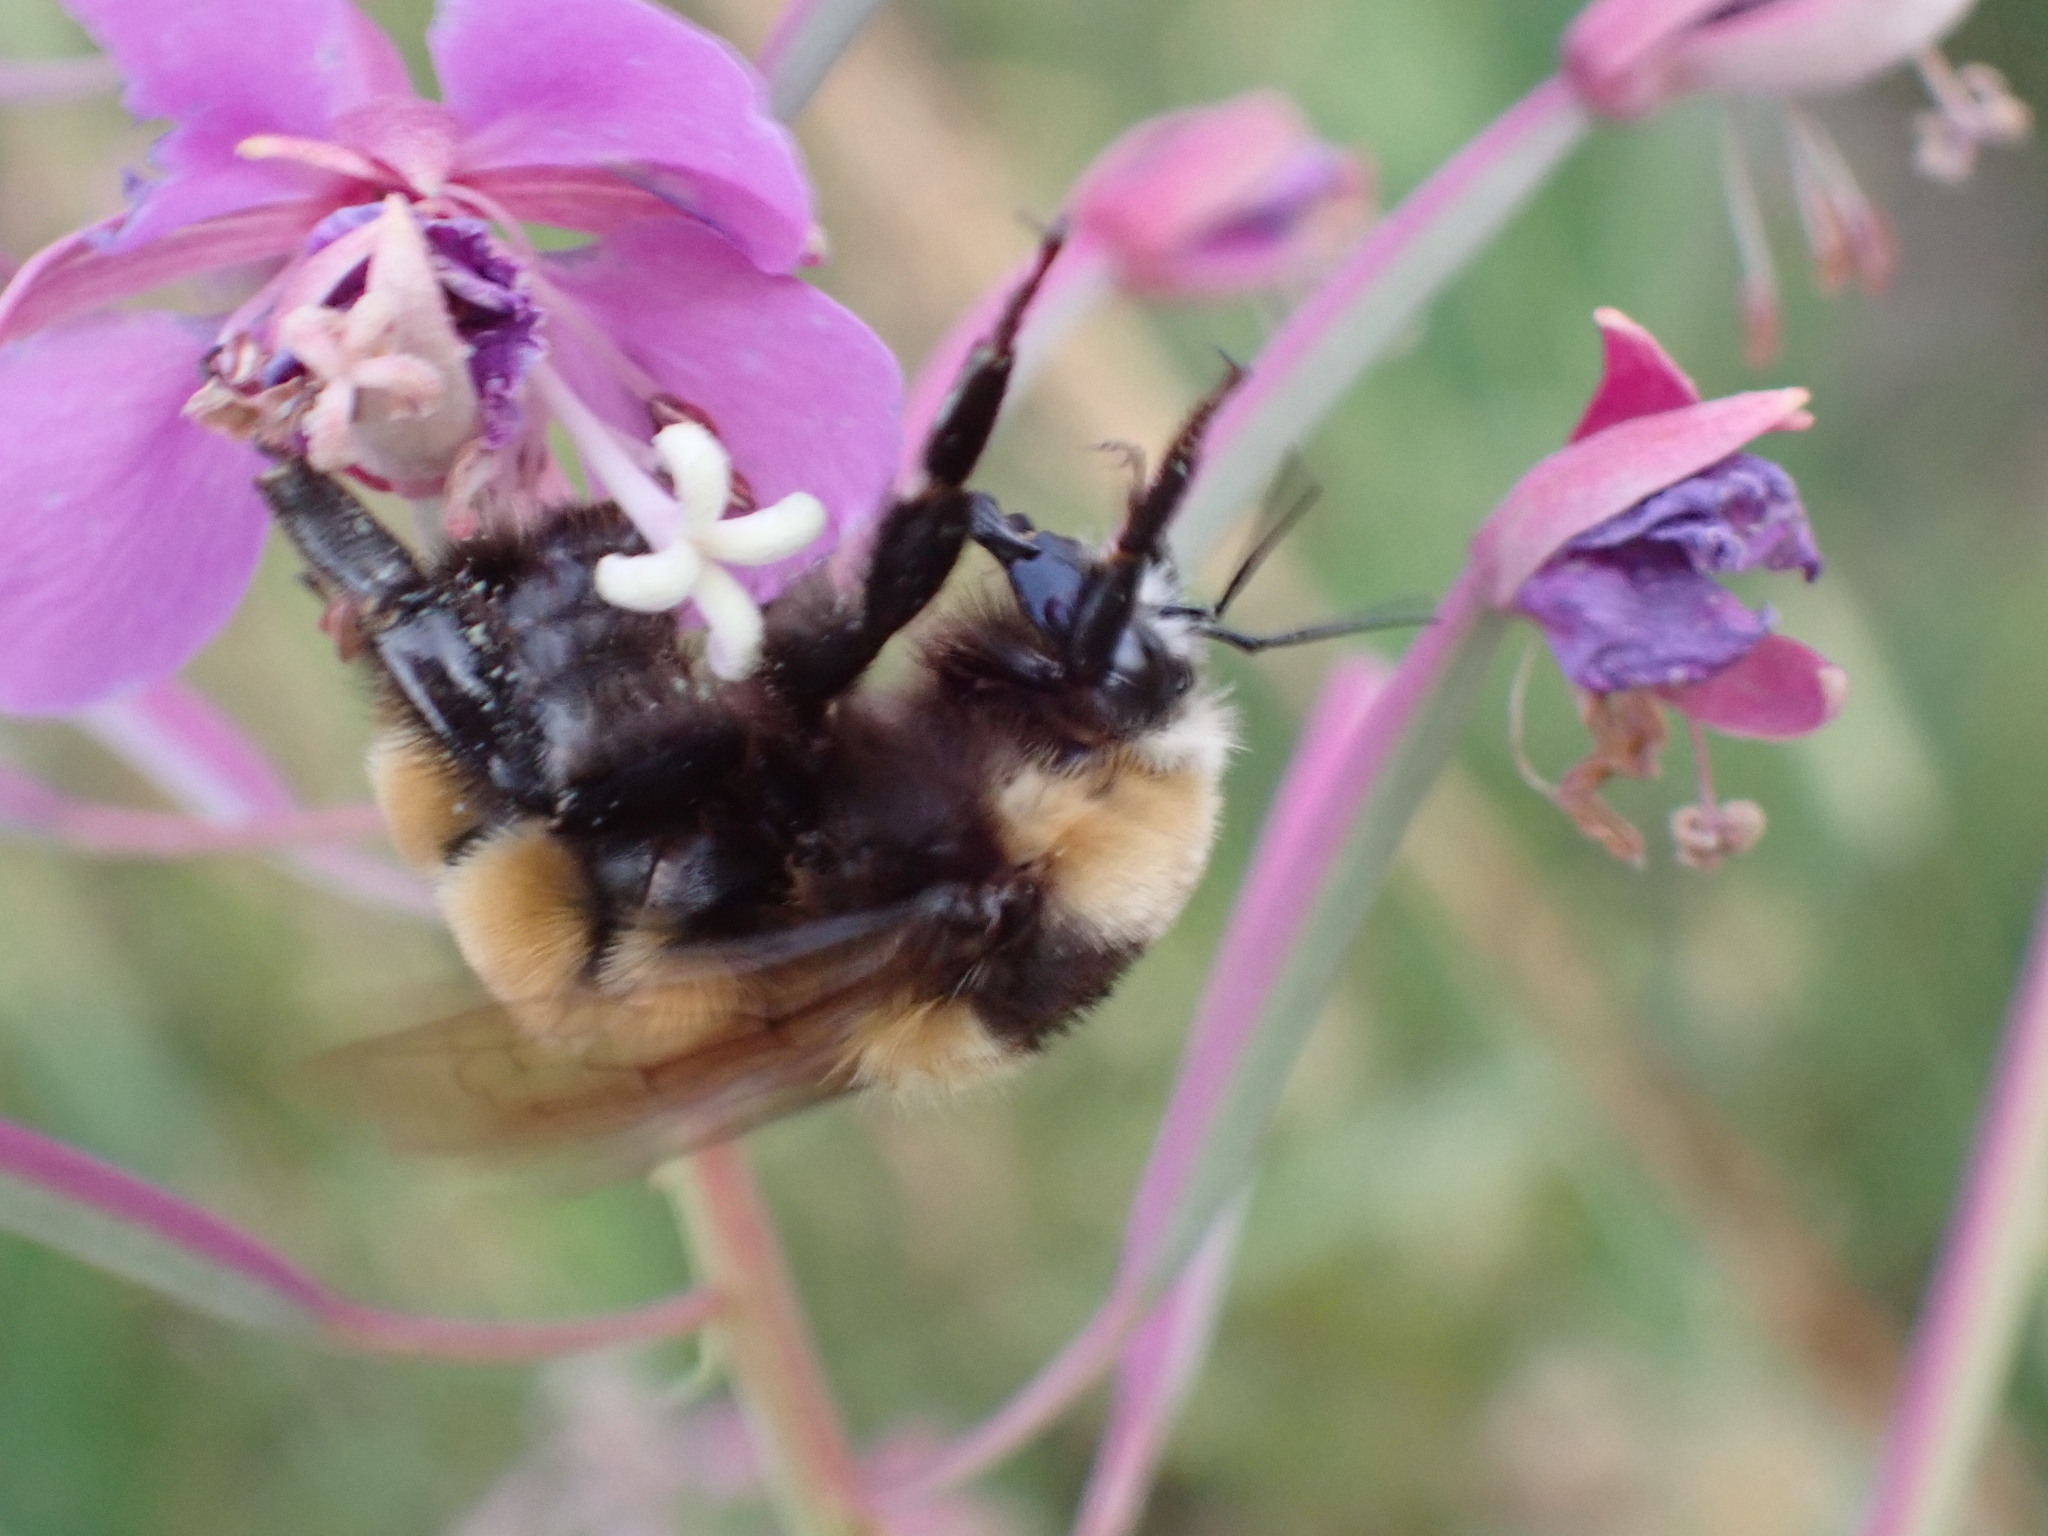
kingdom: Animalia
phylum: Arthropoda
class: Insecta
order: Hymenoptera
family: Apidae
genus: Bombus
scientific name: Bombus borealis
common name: Northern amber bumble bee
